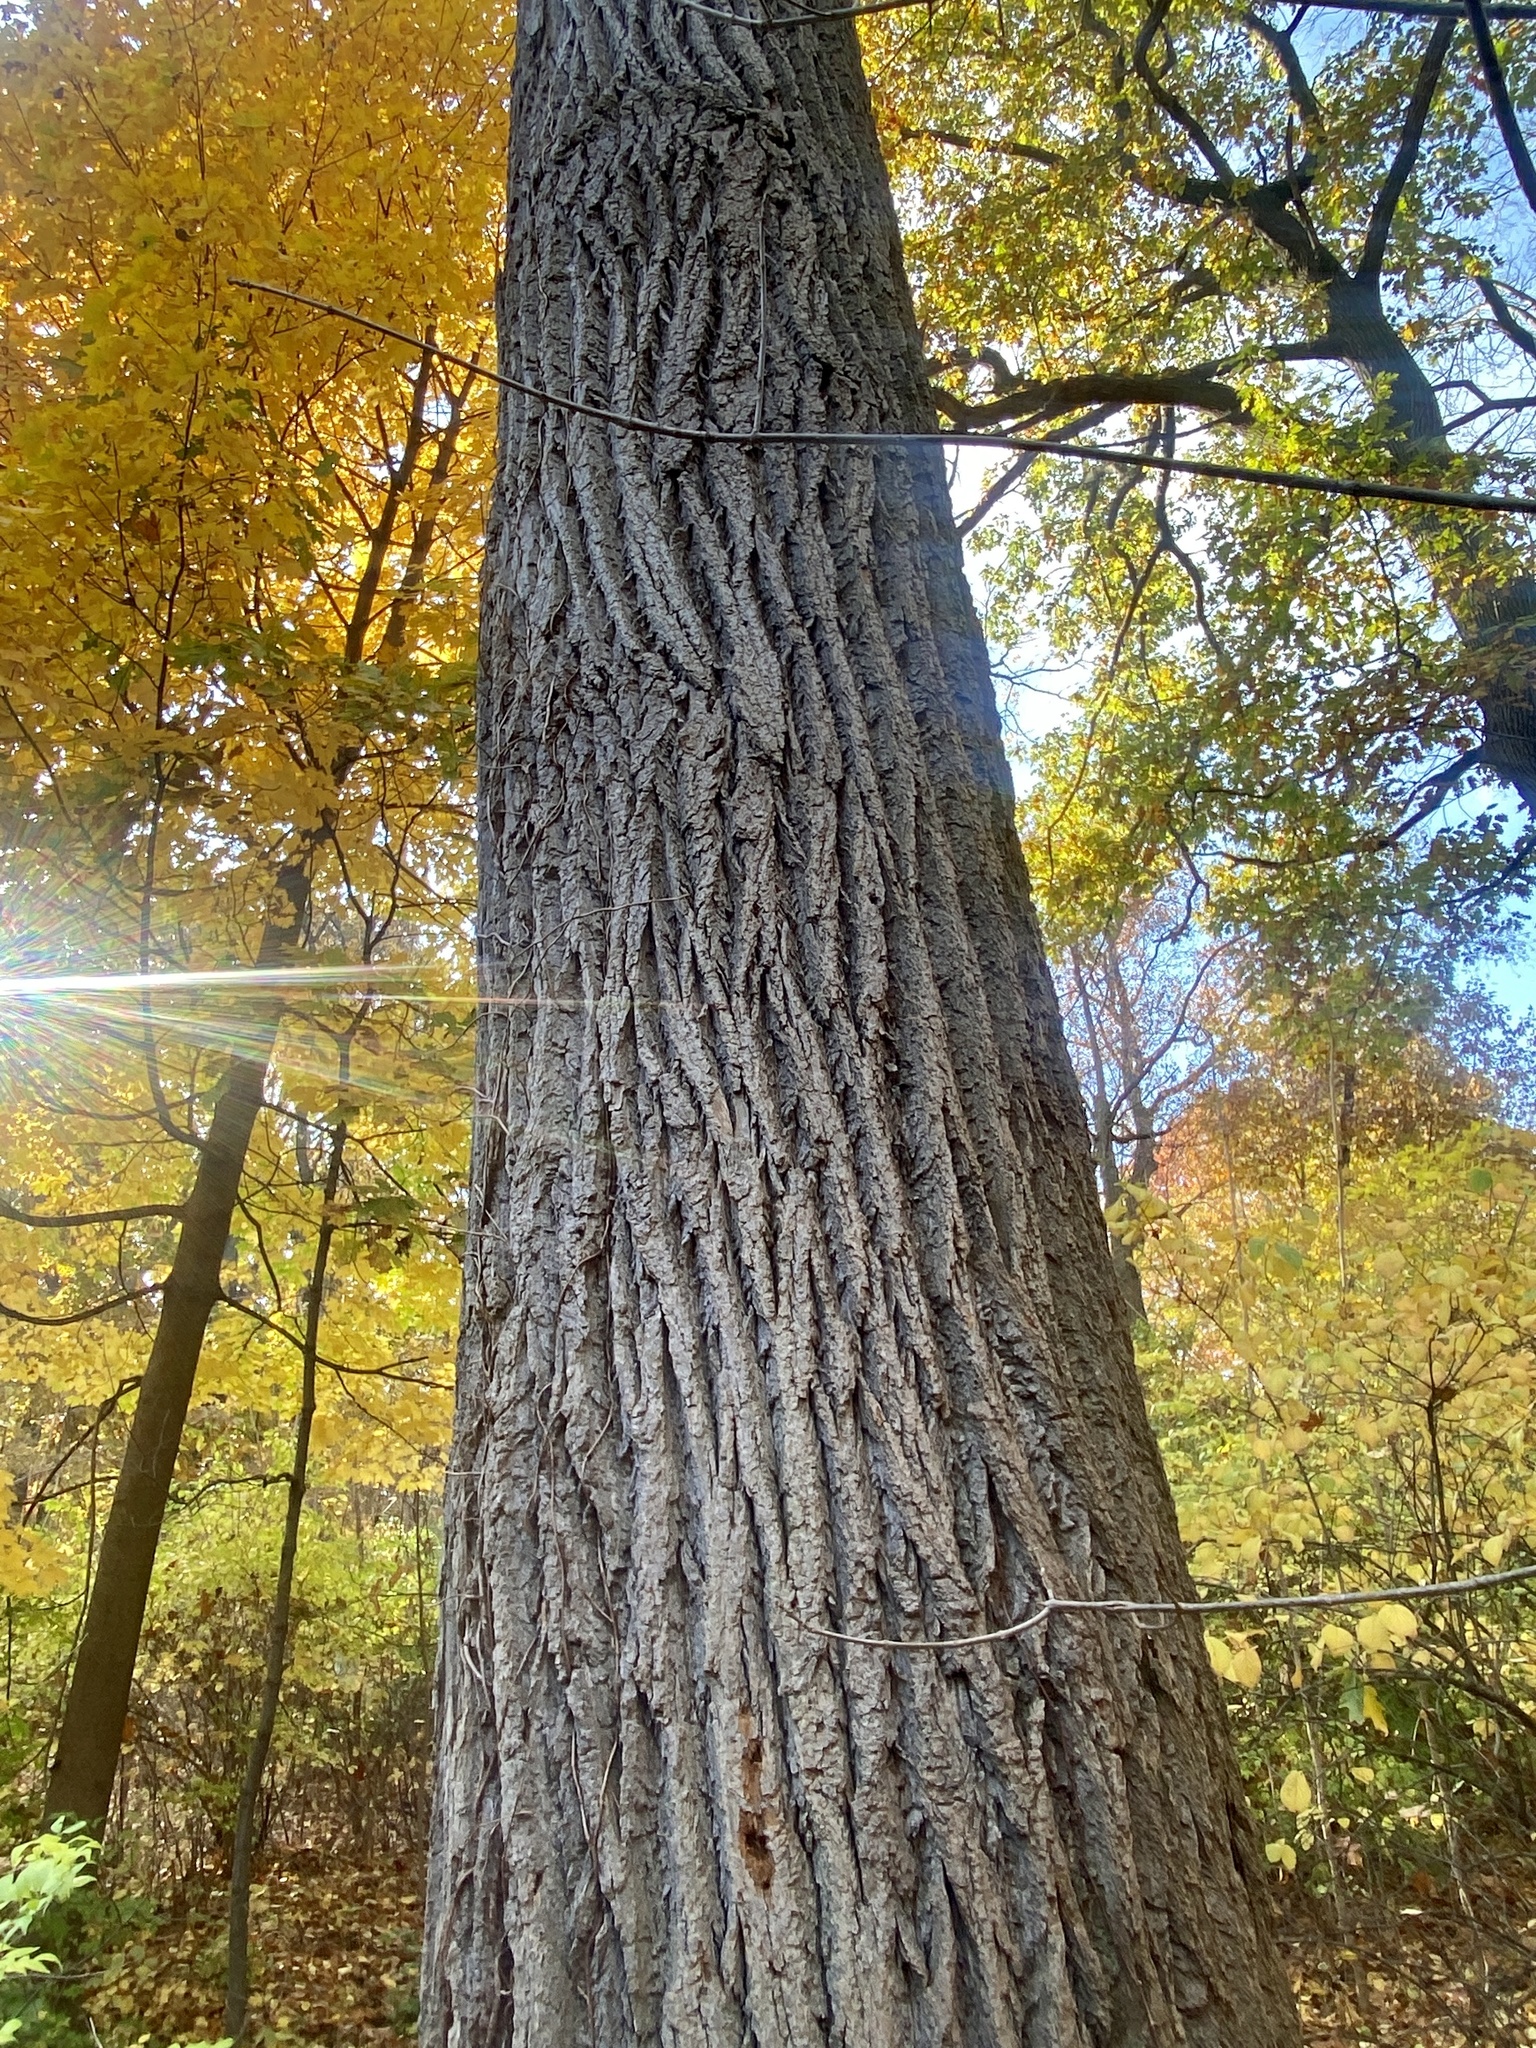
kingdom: Plantae
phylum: Tracheophyta
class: Magnoliopsida
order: Magnoliales
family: Magnoliaceae
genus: Liriodendron
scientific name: Liriodendron tulipifera
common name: Tulip tree
